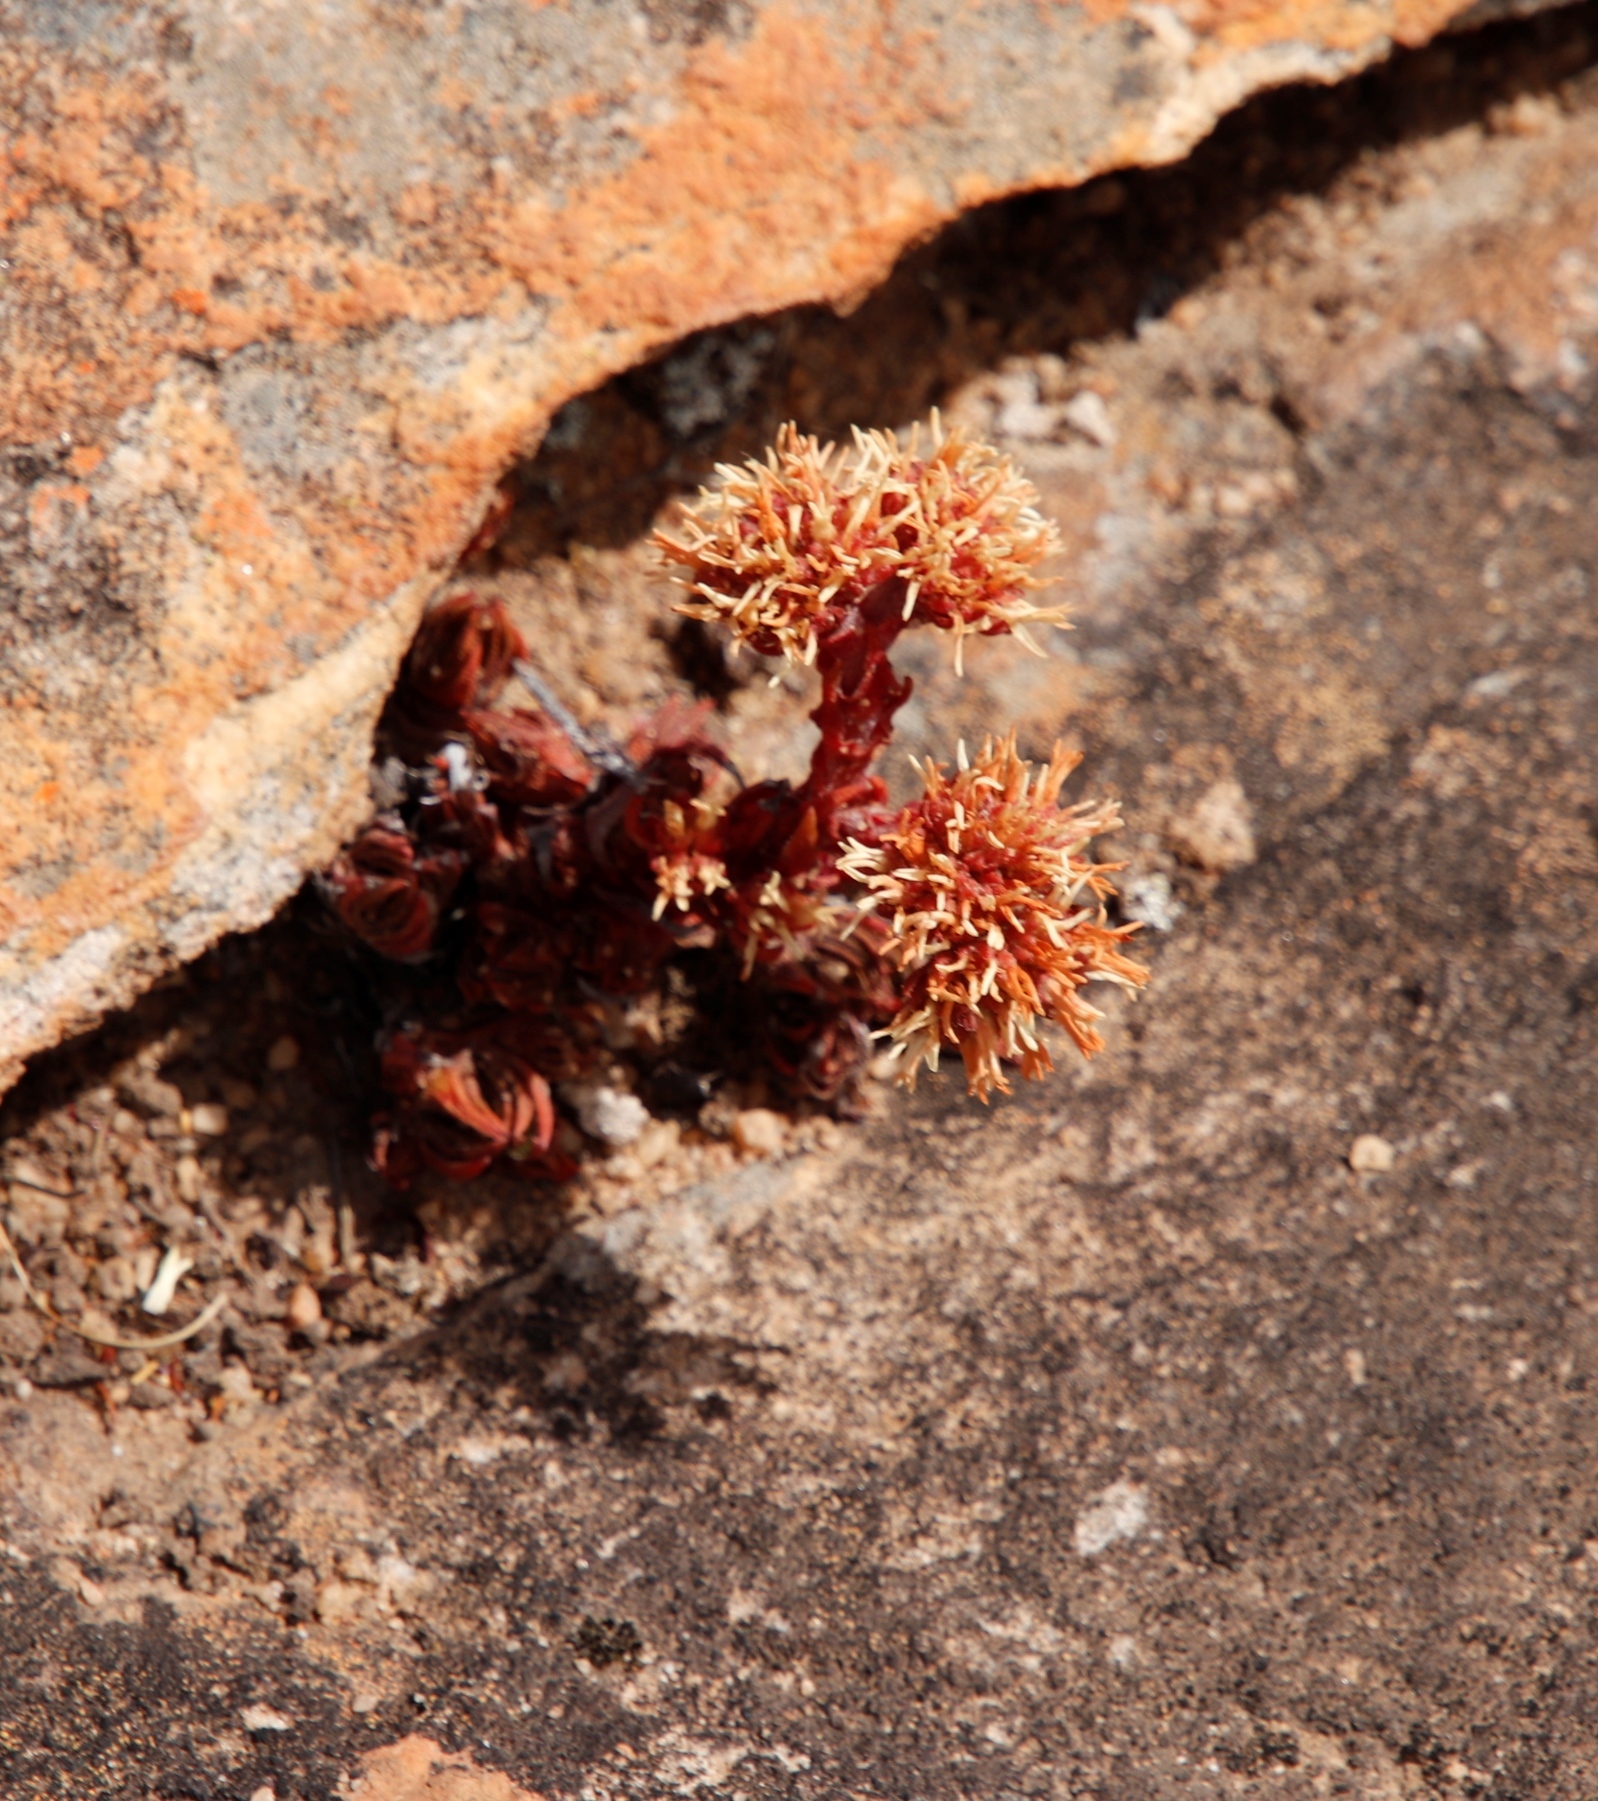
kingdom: Plantae
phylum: Tracheophyta
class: Magnoliopsida
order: Saxifragales
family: Crassulaceae
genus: Crassula
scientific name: Crassula alpestris
